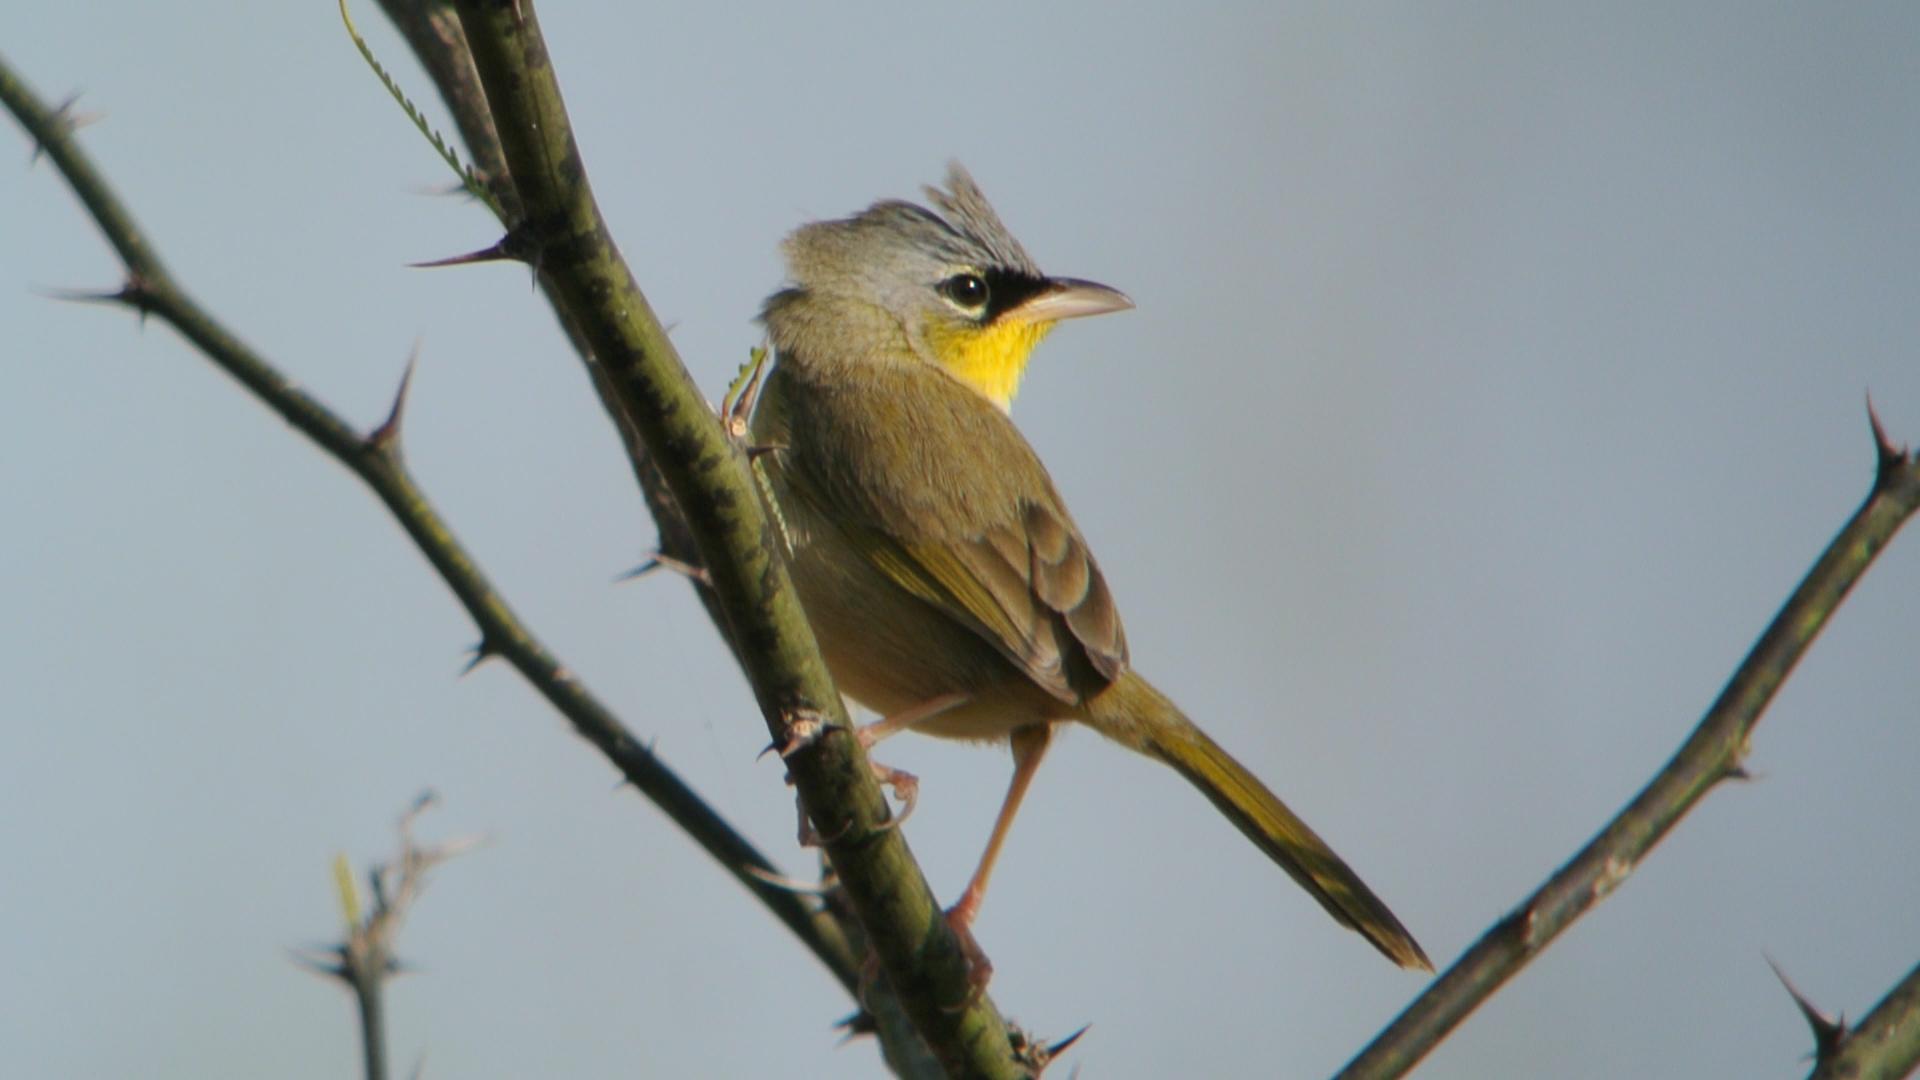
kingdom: Animalia
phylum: Chordata
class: Aves
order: Passeriformes
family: Parulidae
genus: Geothlypis
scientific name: Geothlypis poliocephala
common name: Gray-crowned yellowthroat
